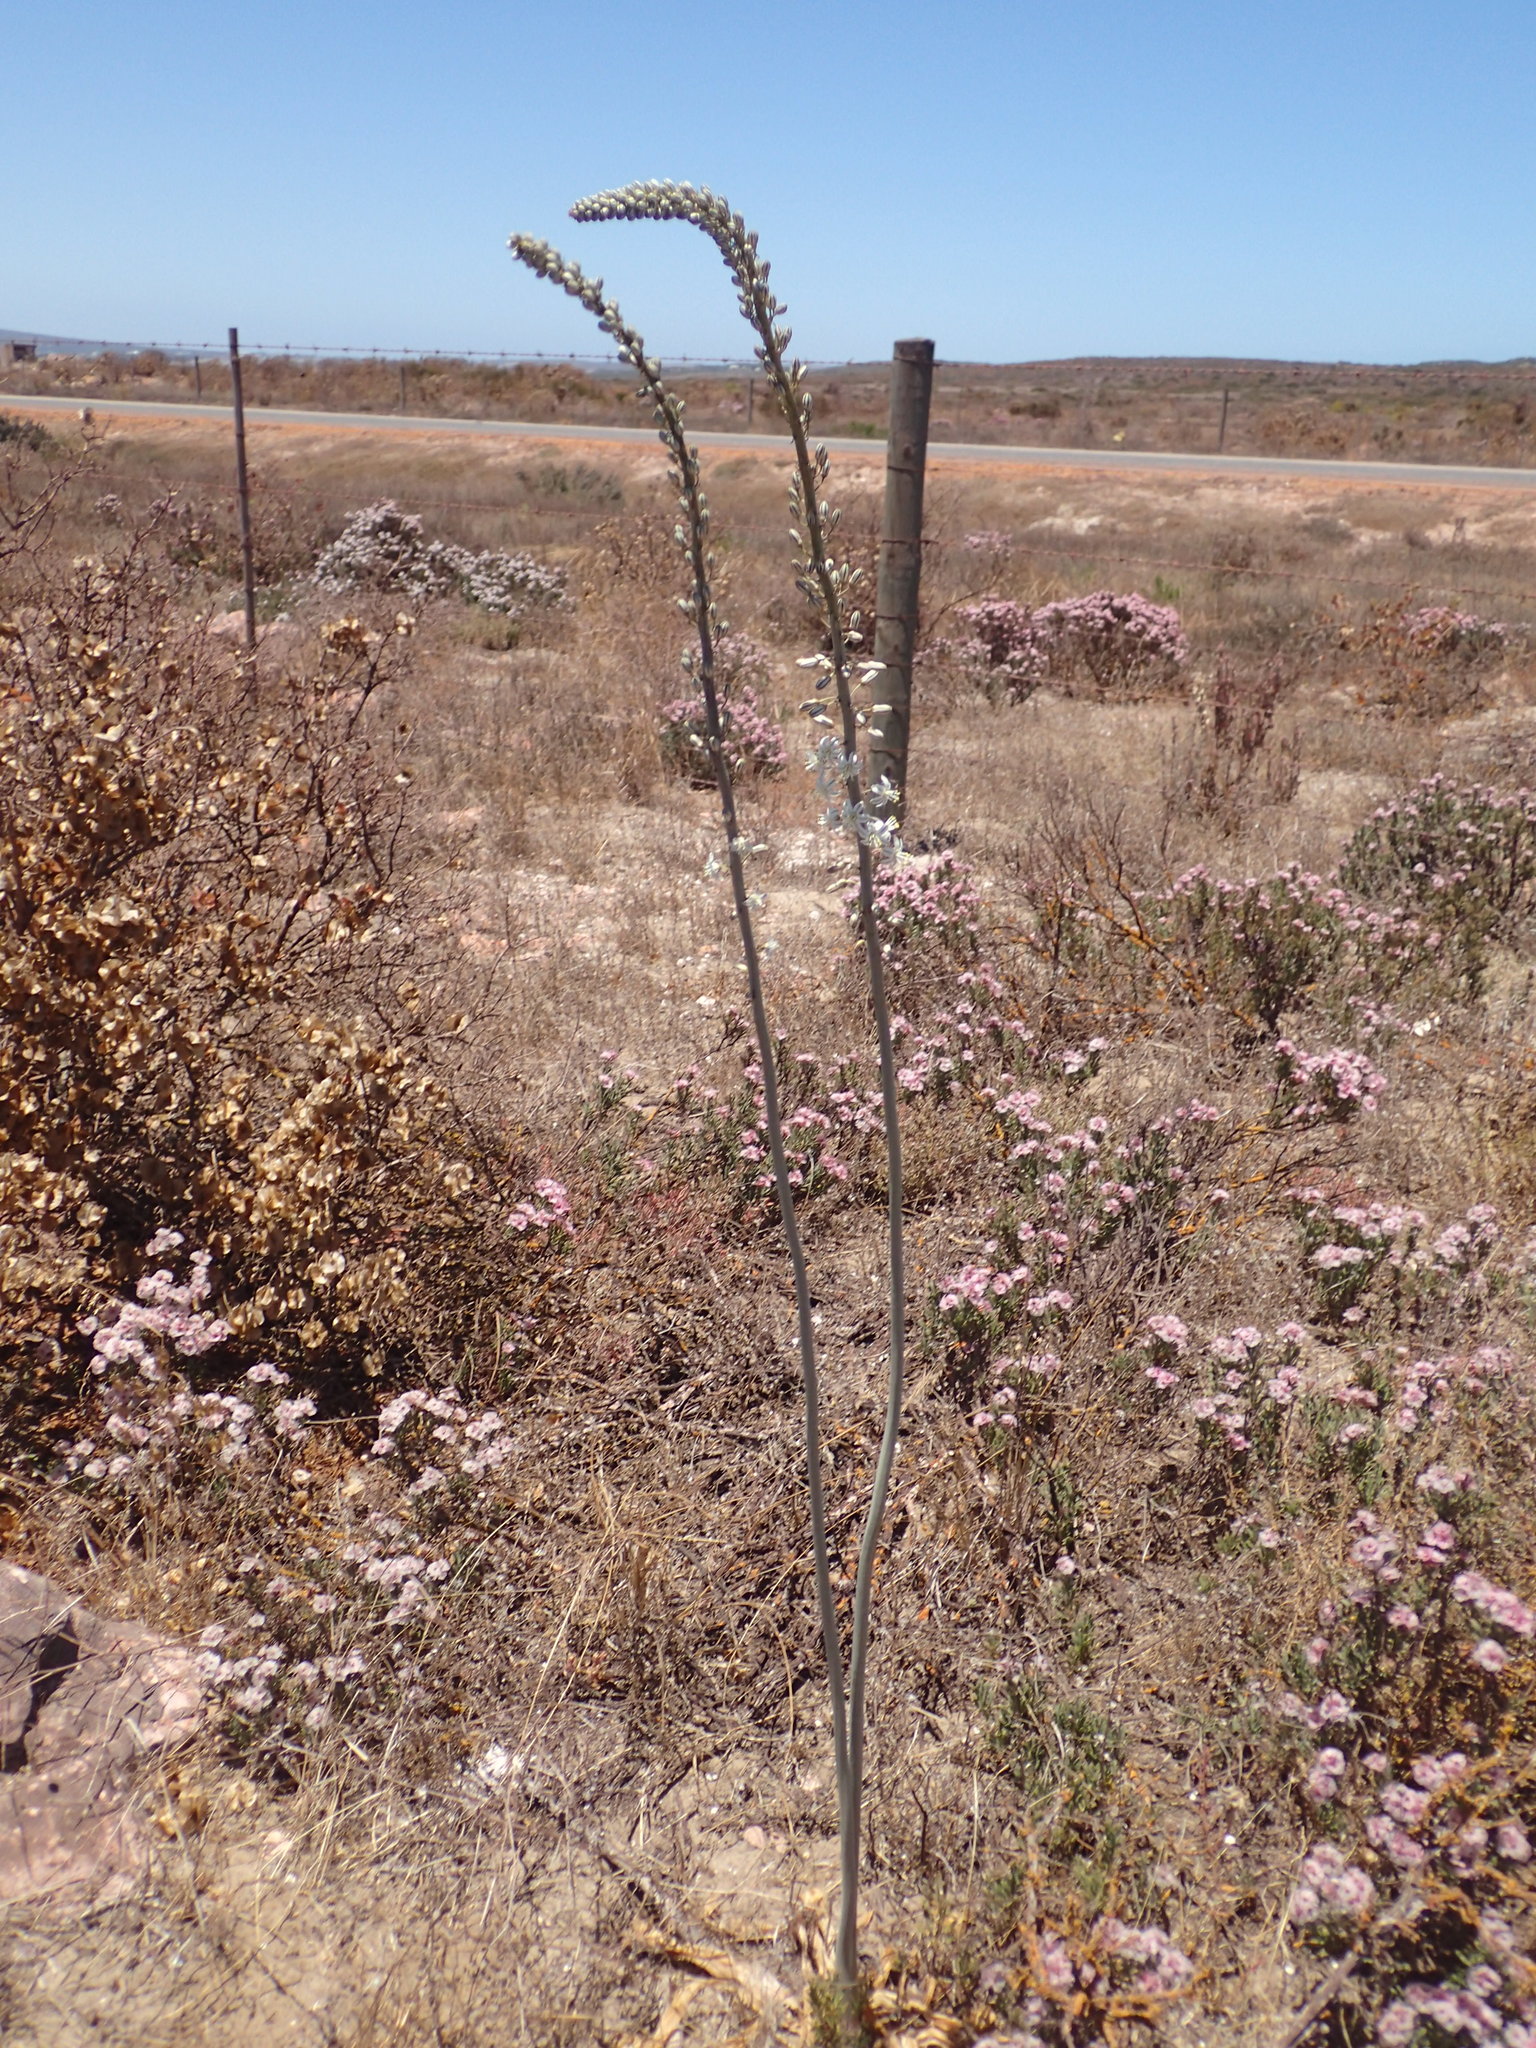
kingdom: Plantae
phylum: Tracheophyta
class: Liliopsida
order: Asparagales
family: Asparagaceae
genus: Drimia
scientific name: Drimia capensis
